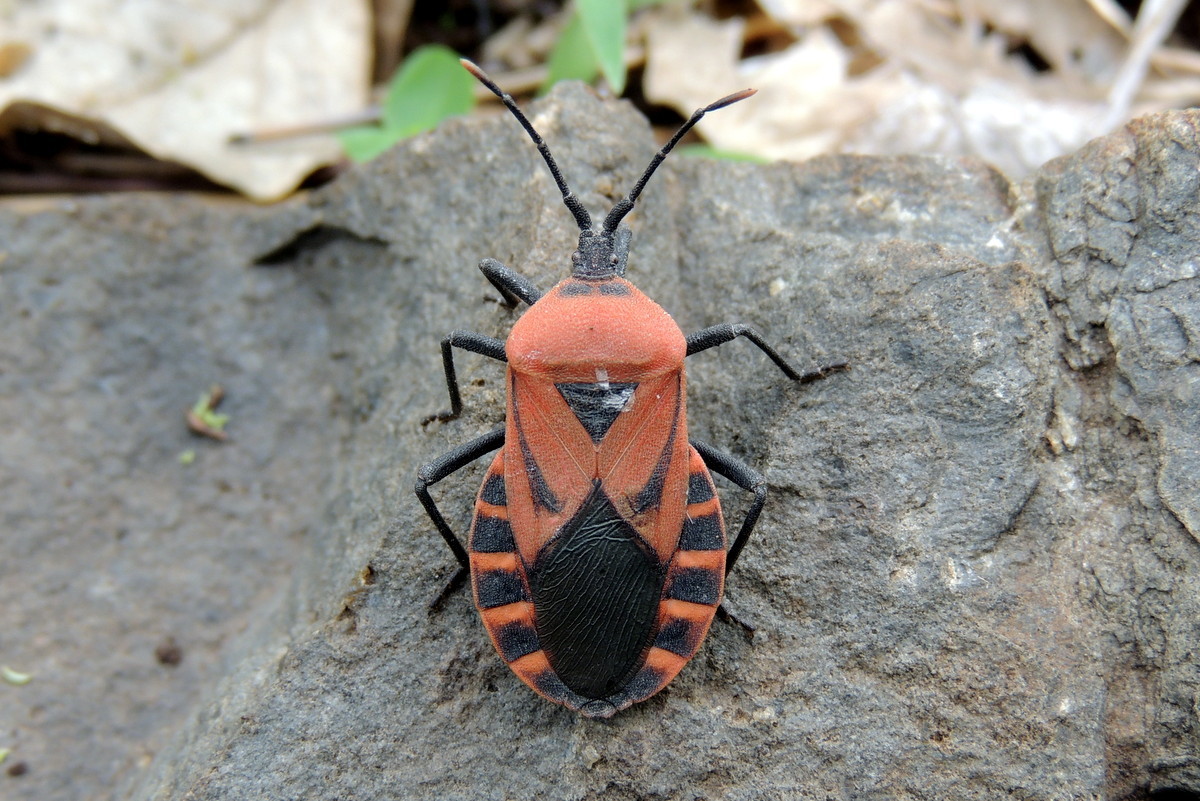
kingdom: Animalia
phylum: Arthropoda
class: Insecta
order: Hemiptera
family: Coreidae
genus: Brachytes
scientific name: Brachytes bicolor
